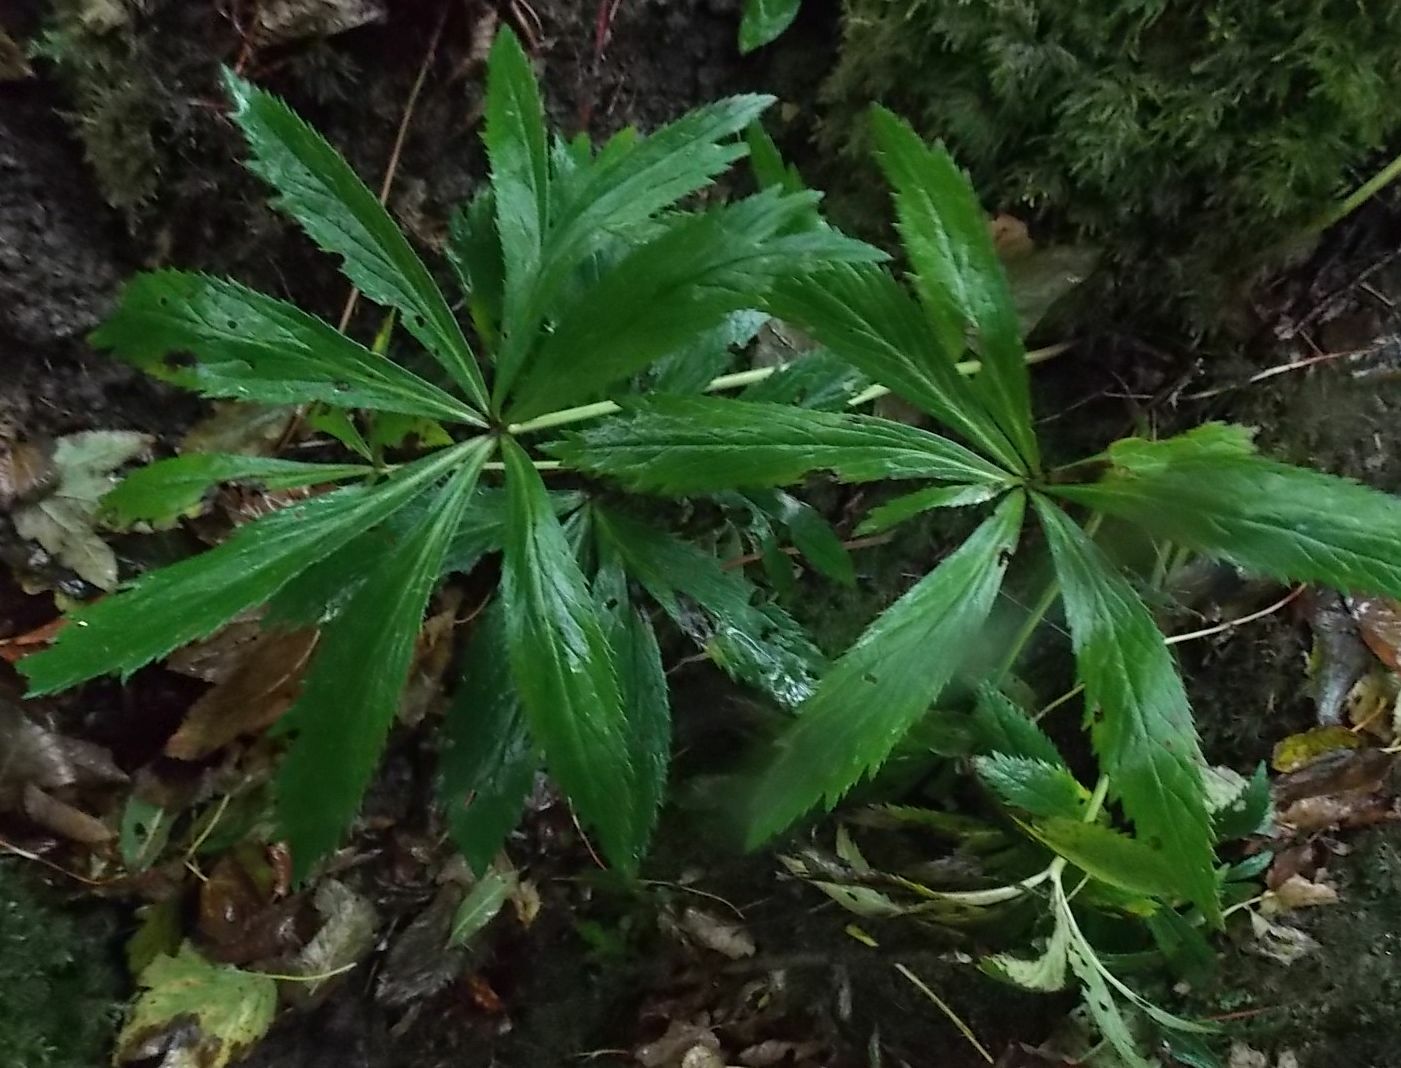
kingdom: Plantae
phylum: Tracheophyta
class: Magnoliopsida
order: Ranunculales
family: Ranunculaceae
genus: Helleborus
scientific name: Helleborus viridis
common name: Green hellebore
